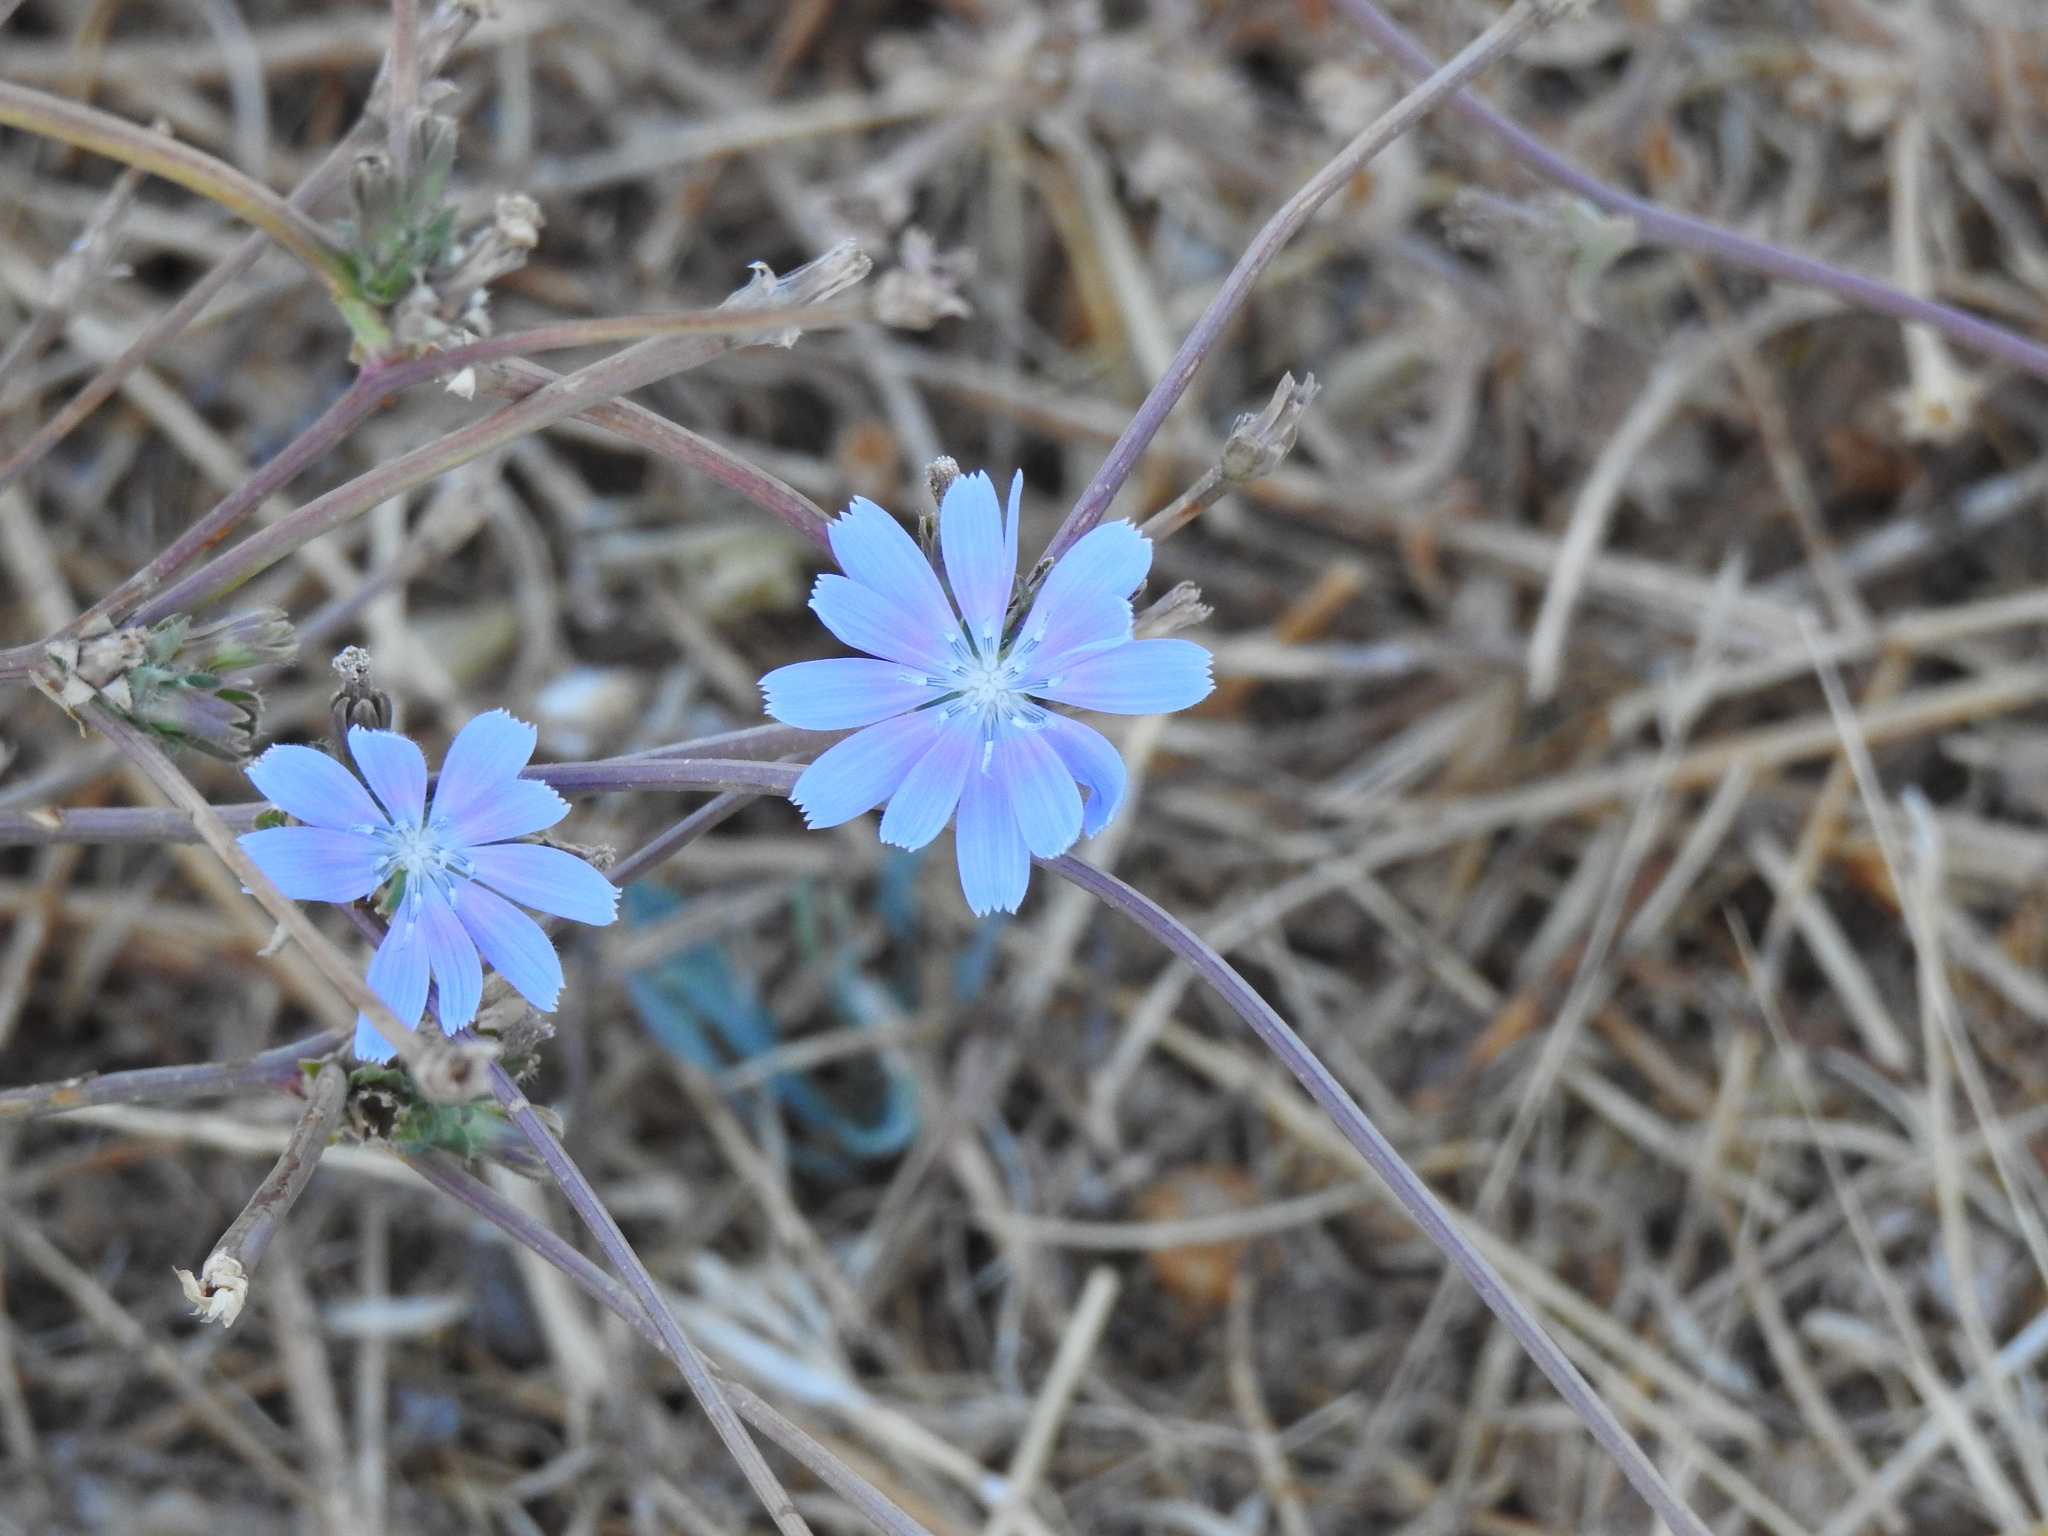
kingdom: Plantae
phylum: Tracheophyta
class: Magnoliopsida
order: Asterales
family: Asteraceae
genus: Cichorium
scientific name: Cichorium intybus
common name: Chicory
